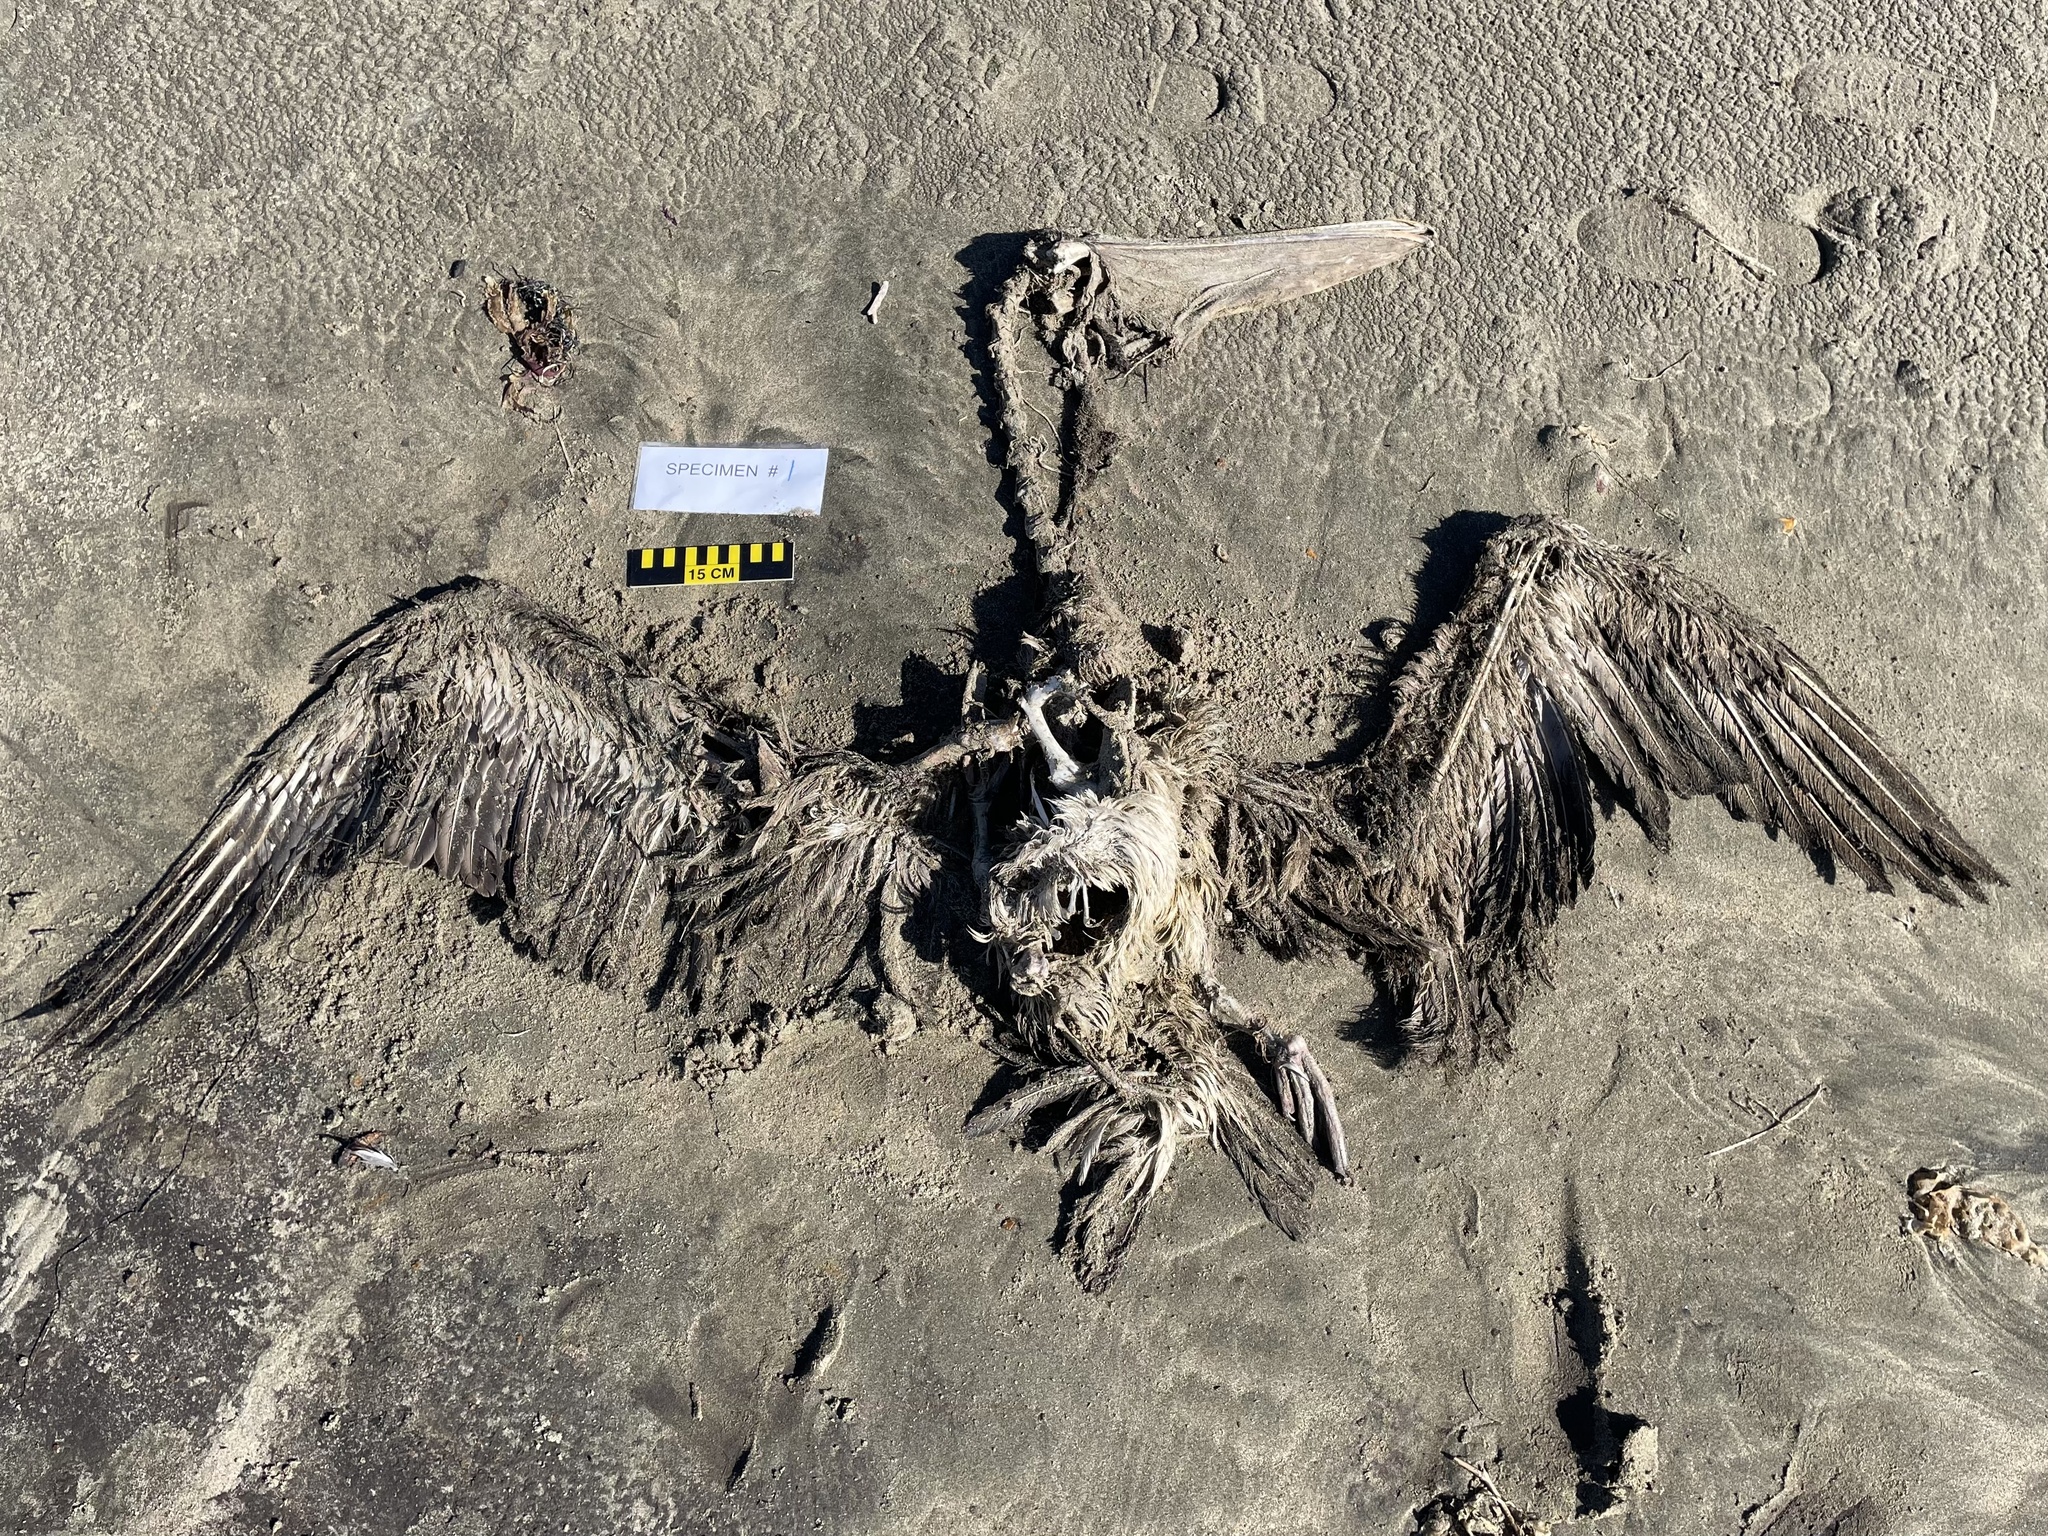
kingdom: Animalia
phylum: Chordata
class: Aves
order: Pelecaniformes
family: Pelecanidae
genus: Pelecanus
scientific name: Pelecanus occidentalis
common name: Brown pelican
